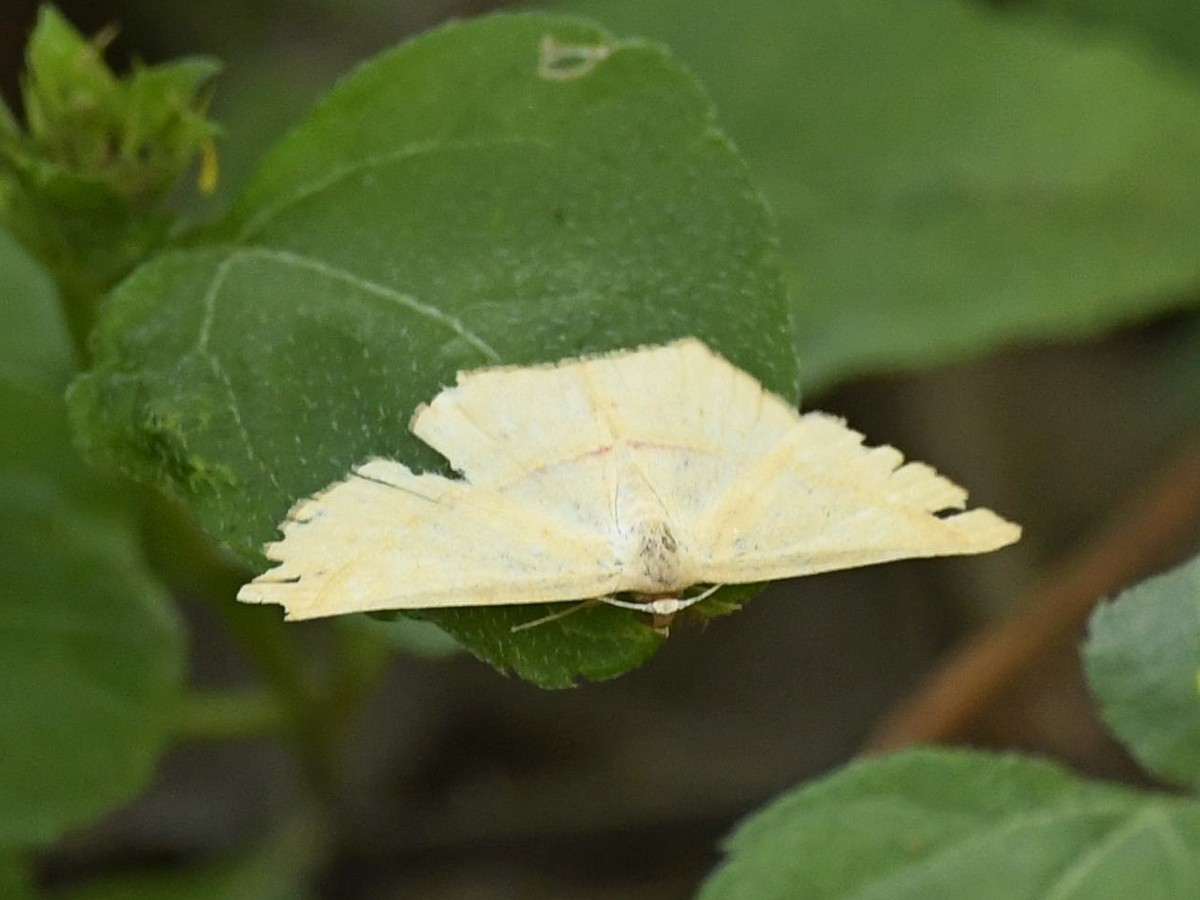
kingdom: Animalia
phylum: Arthropoda
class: Insecta
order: Lepidoptera
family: Geometridae
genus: Traminda
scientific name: Traminda mundissima
